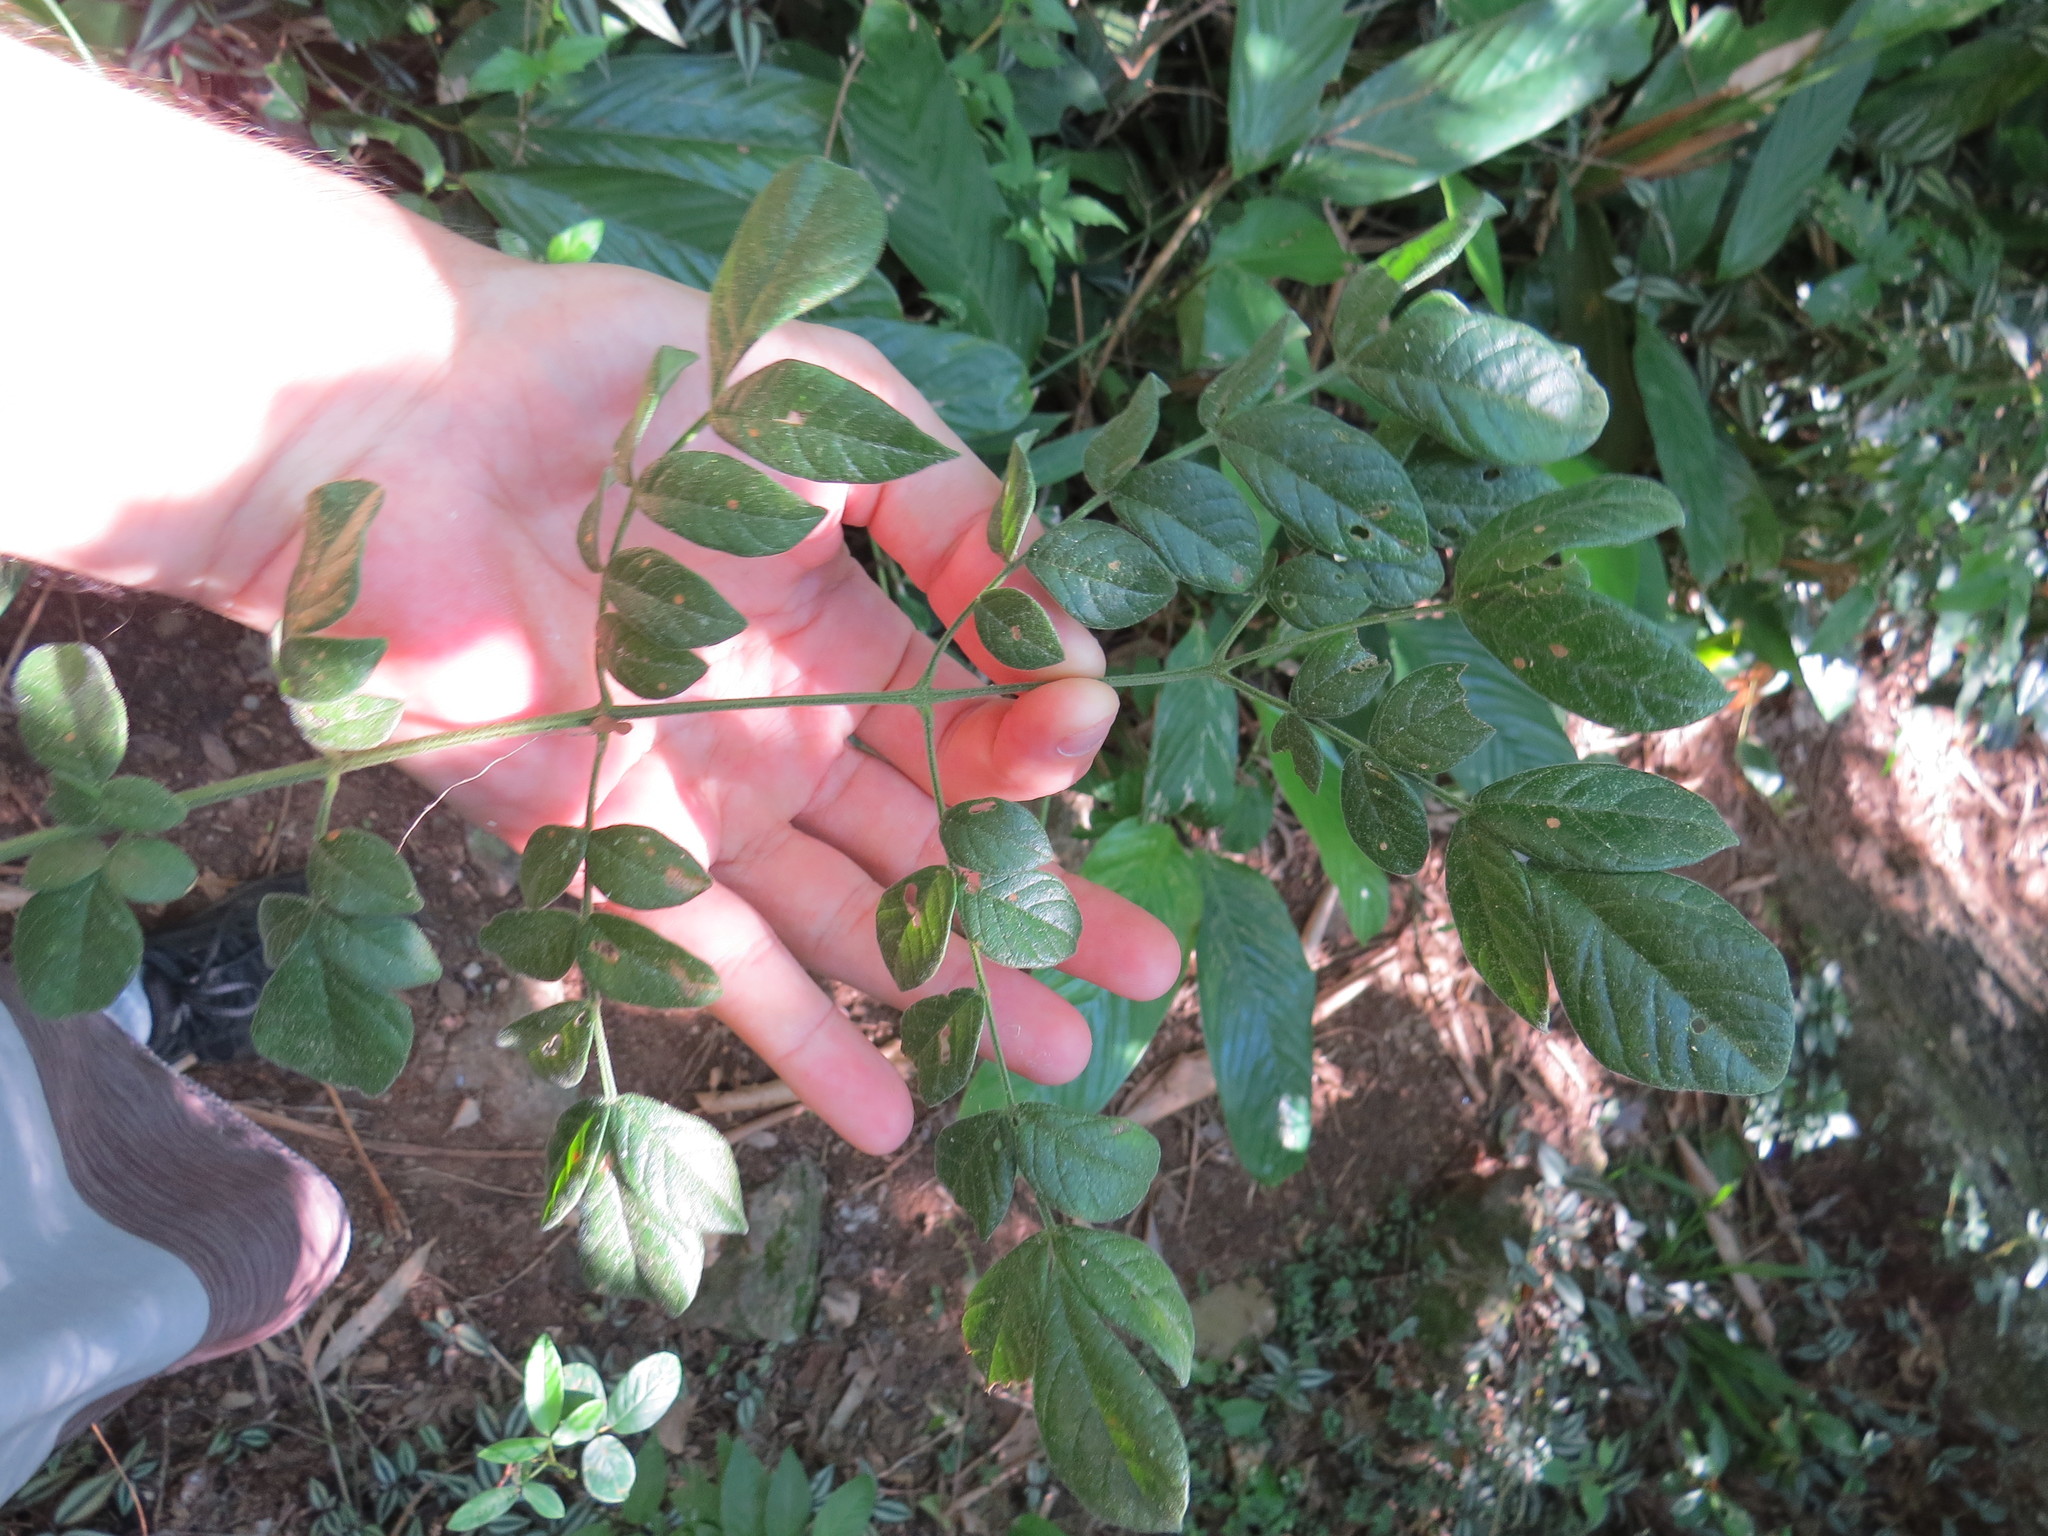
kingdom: Plantae
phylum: Tracheophyta
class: Magnoliopsida
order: Lamiales
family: Bignoniaceae
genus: Jacaranda
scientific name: Jacaranda jasminoides
